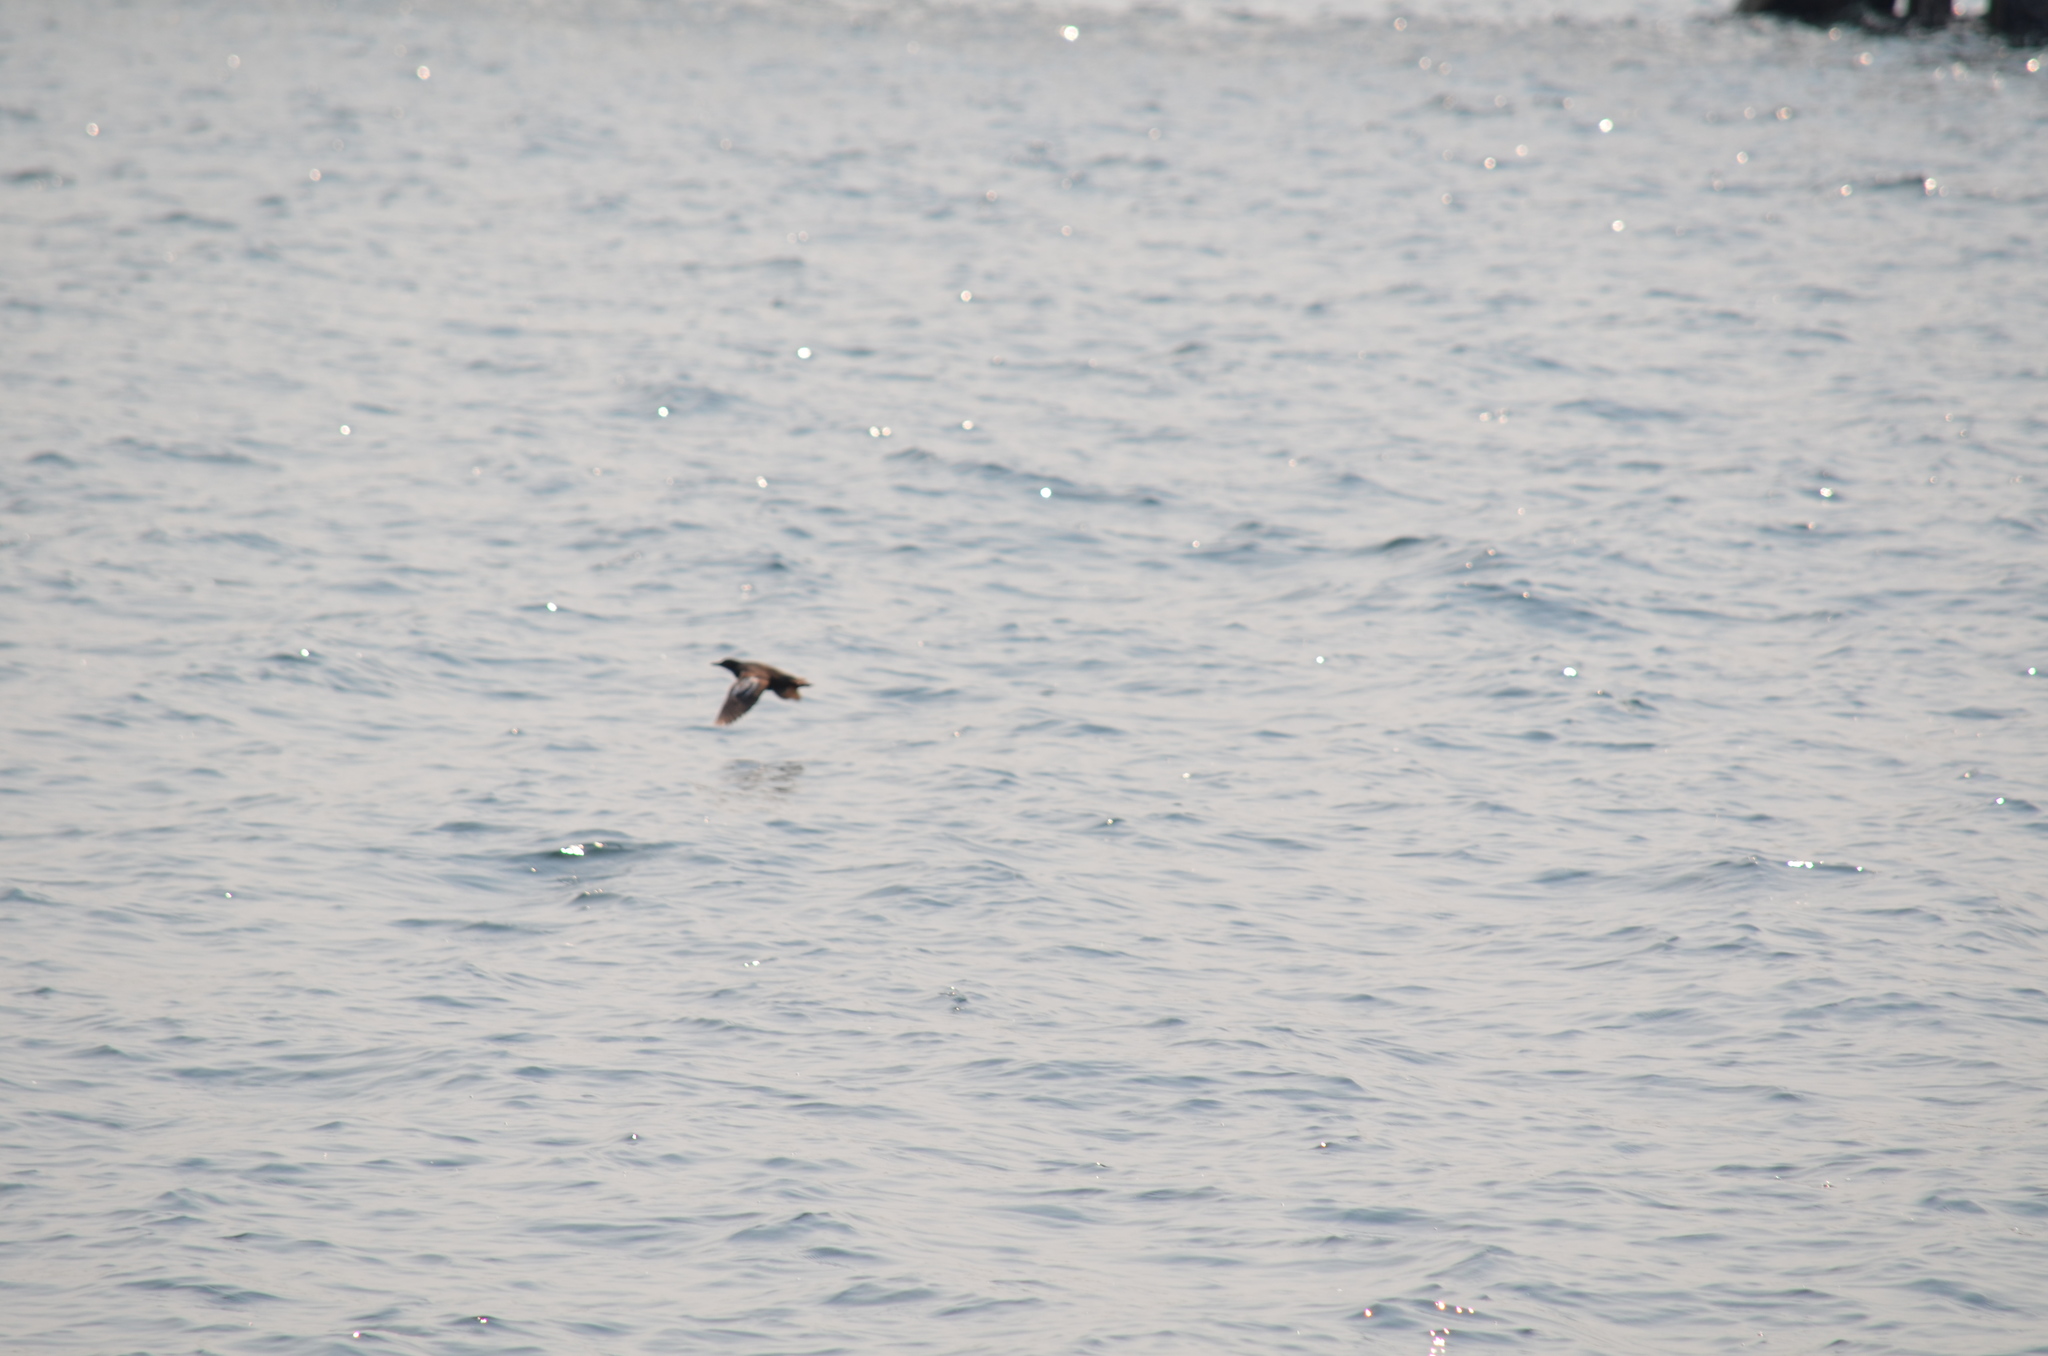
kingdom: Animalia
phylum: Chordata
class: Aves
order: Charadriiformes
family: Alcidae
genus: Cepphus
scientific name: Cepphus columba
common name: Pigeon guillemot
